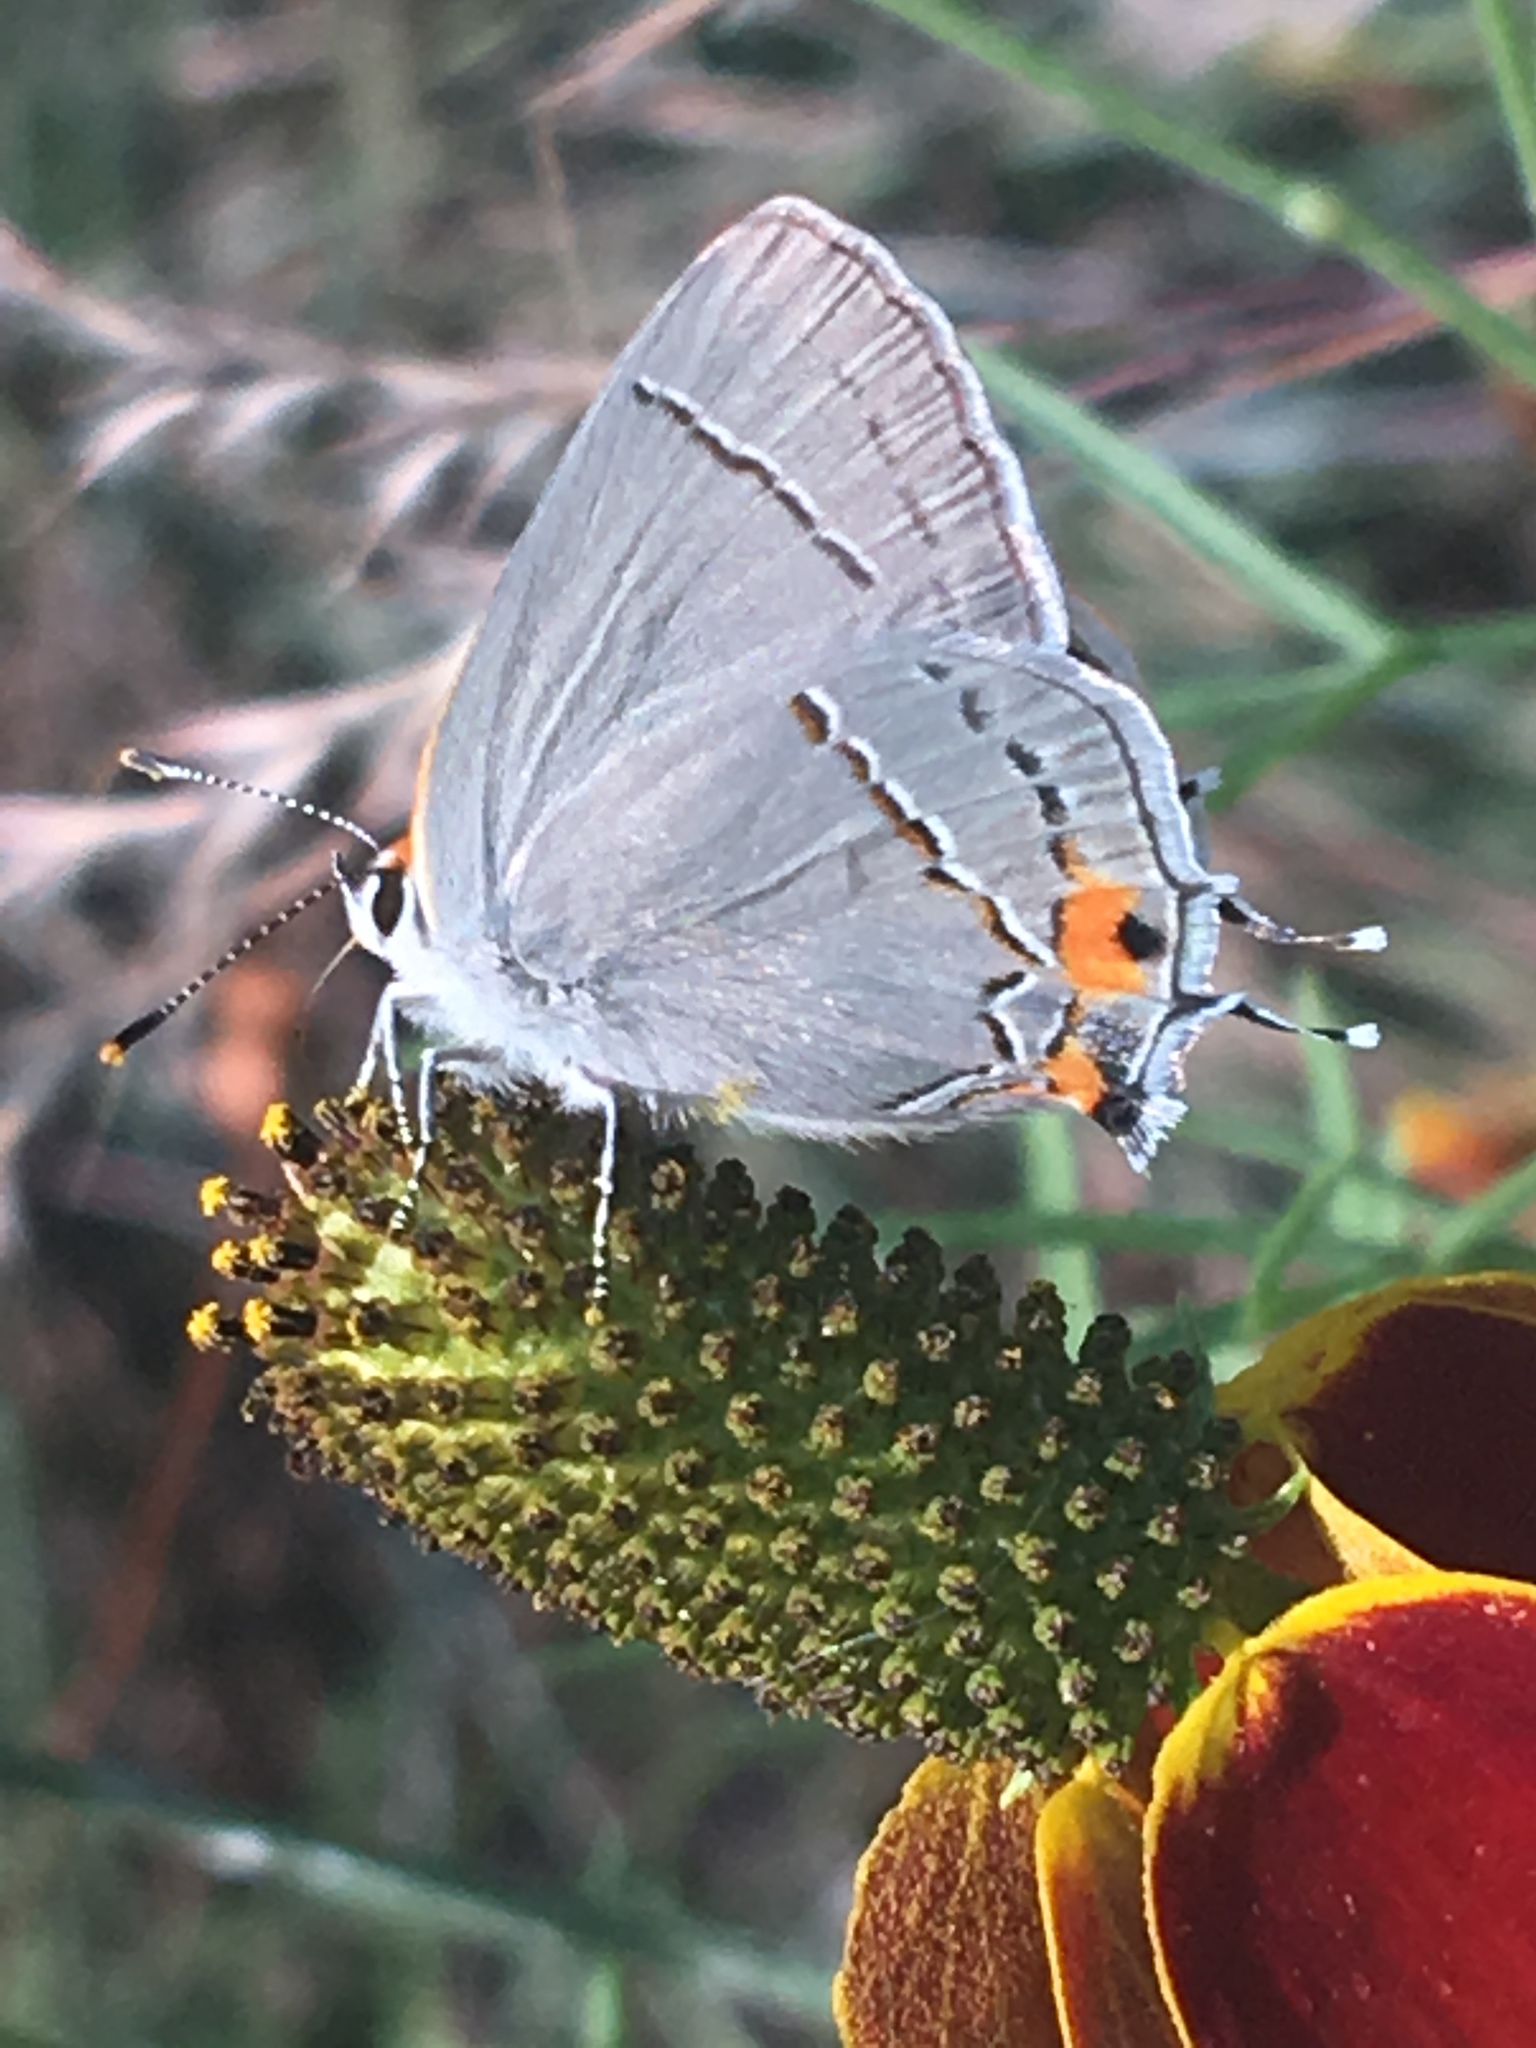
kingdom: Animalia
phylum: Arthropoda
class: Insecta
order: Lepidoptera
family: Lycaenidae
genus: Strymon
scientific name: Strymon melinus
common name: Gray hairstreak
